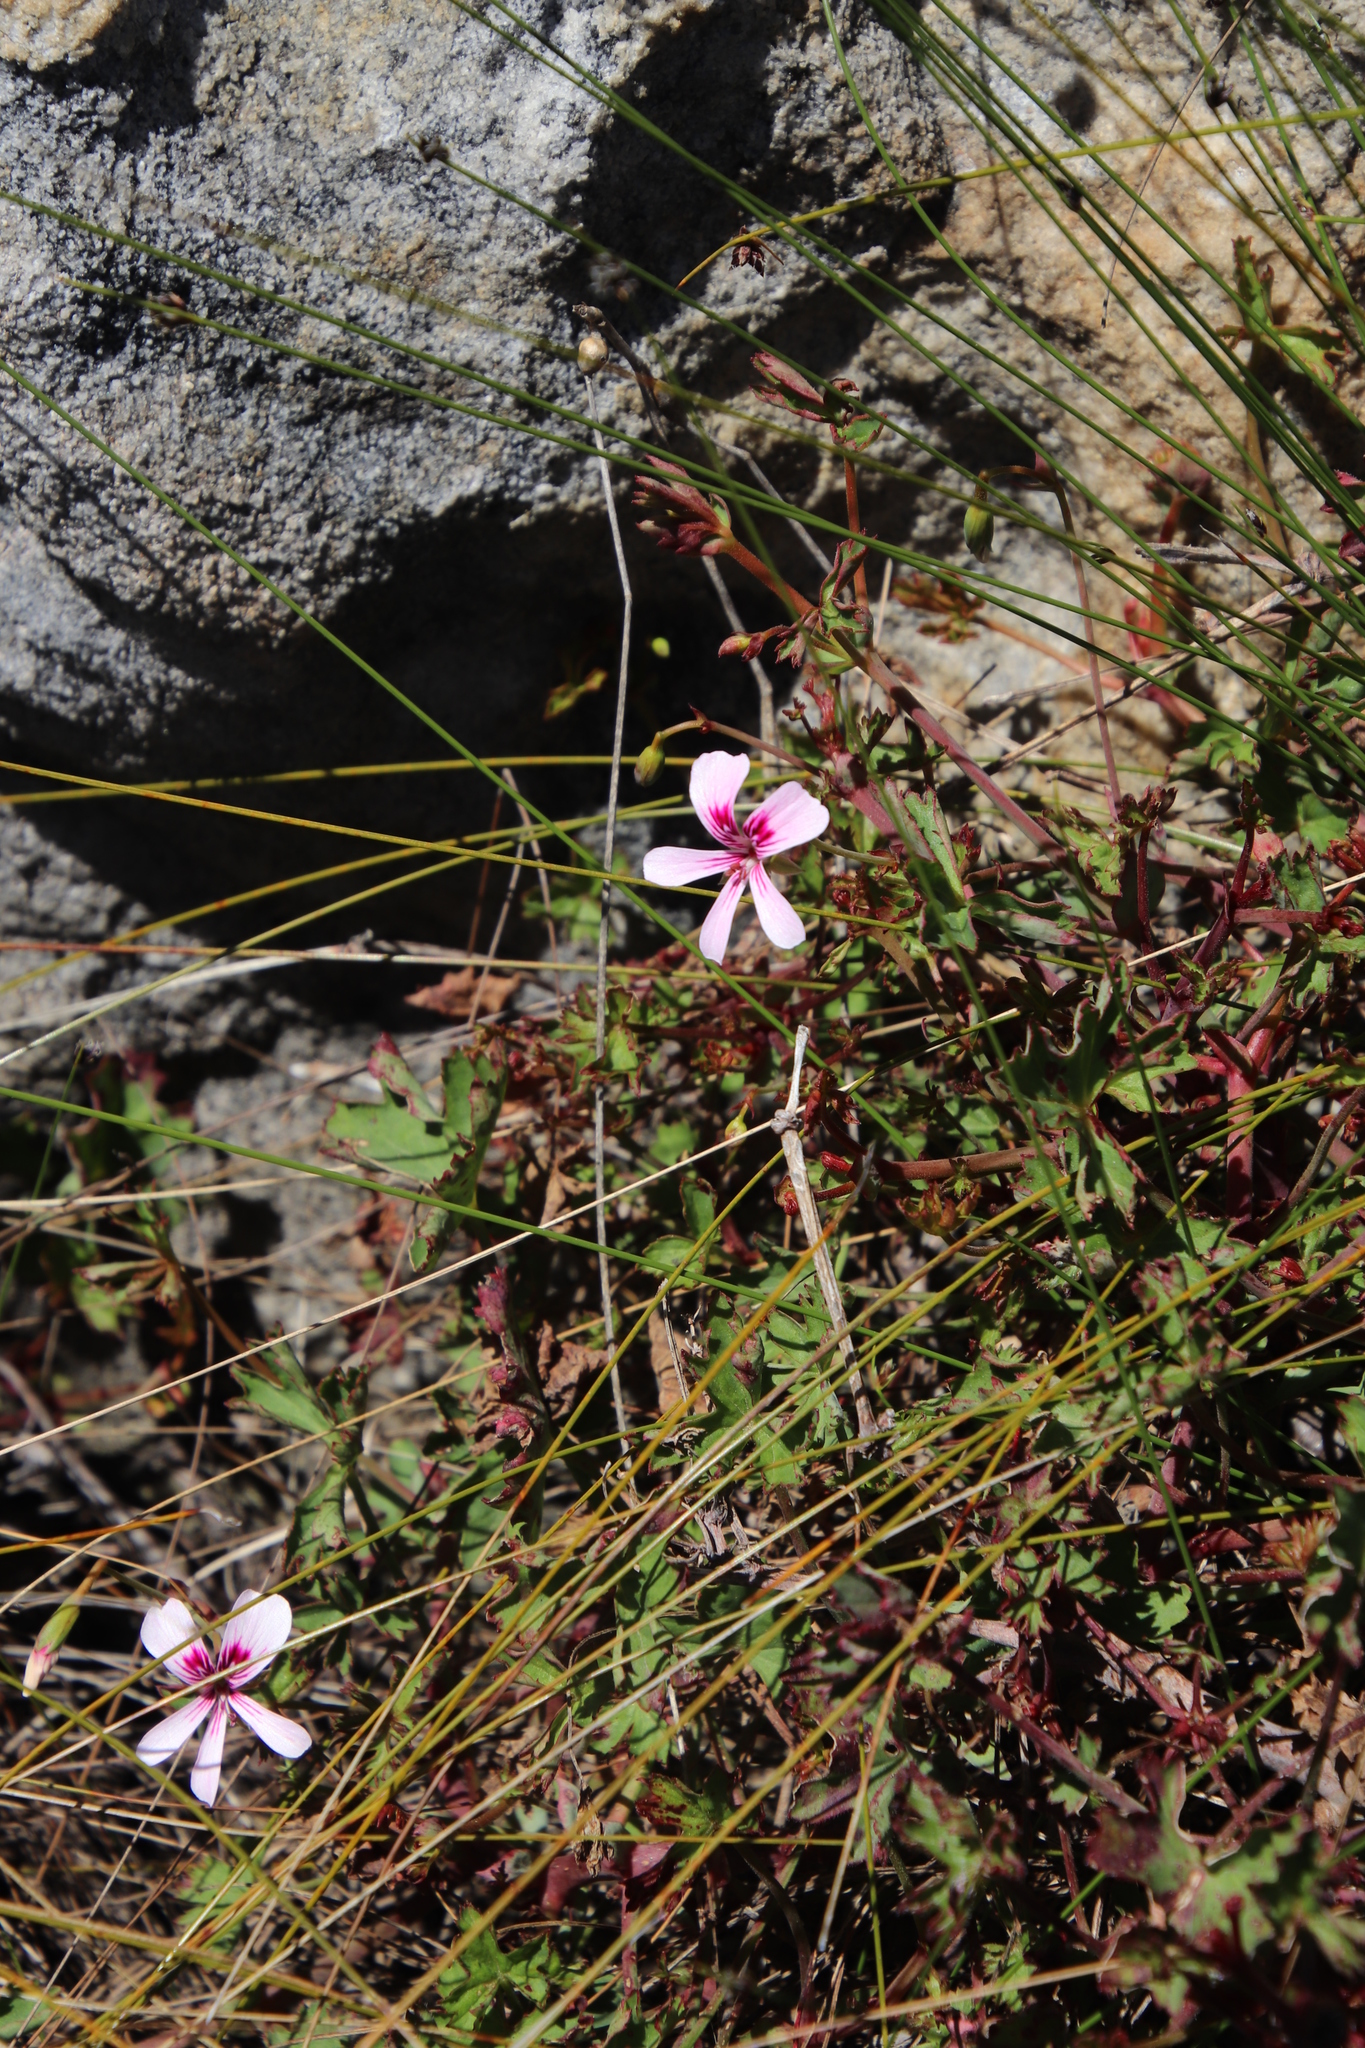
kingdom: Plantae
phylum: Tracheophyta
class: Magnoliopsida
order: Geraniales
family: Geraniaceae
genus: Pelargonium
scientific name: Pelargonium patulum
